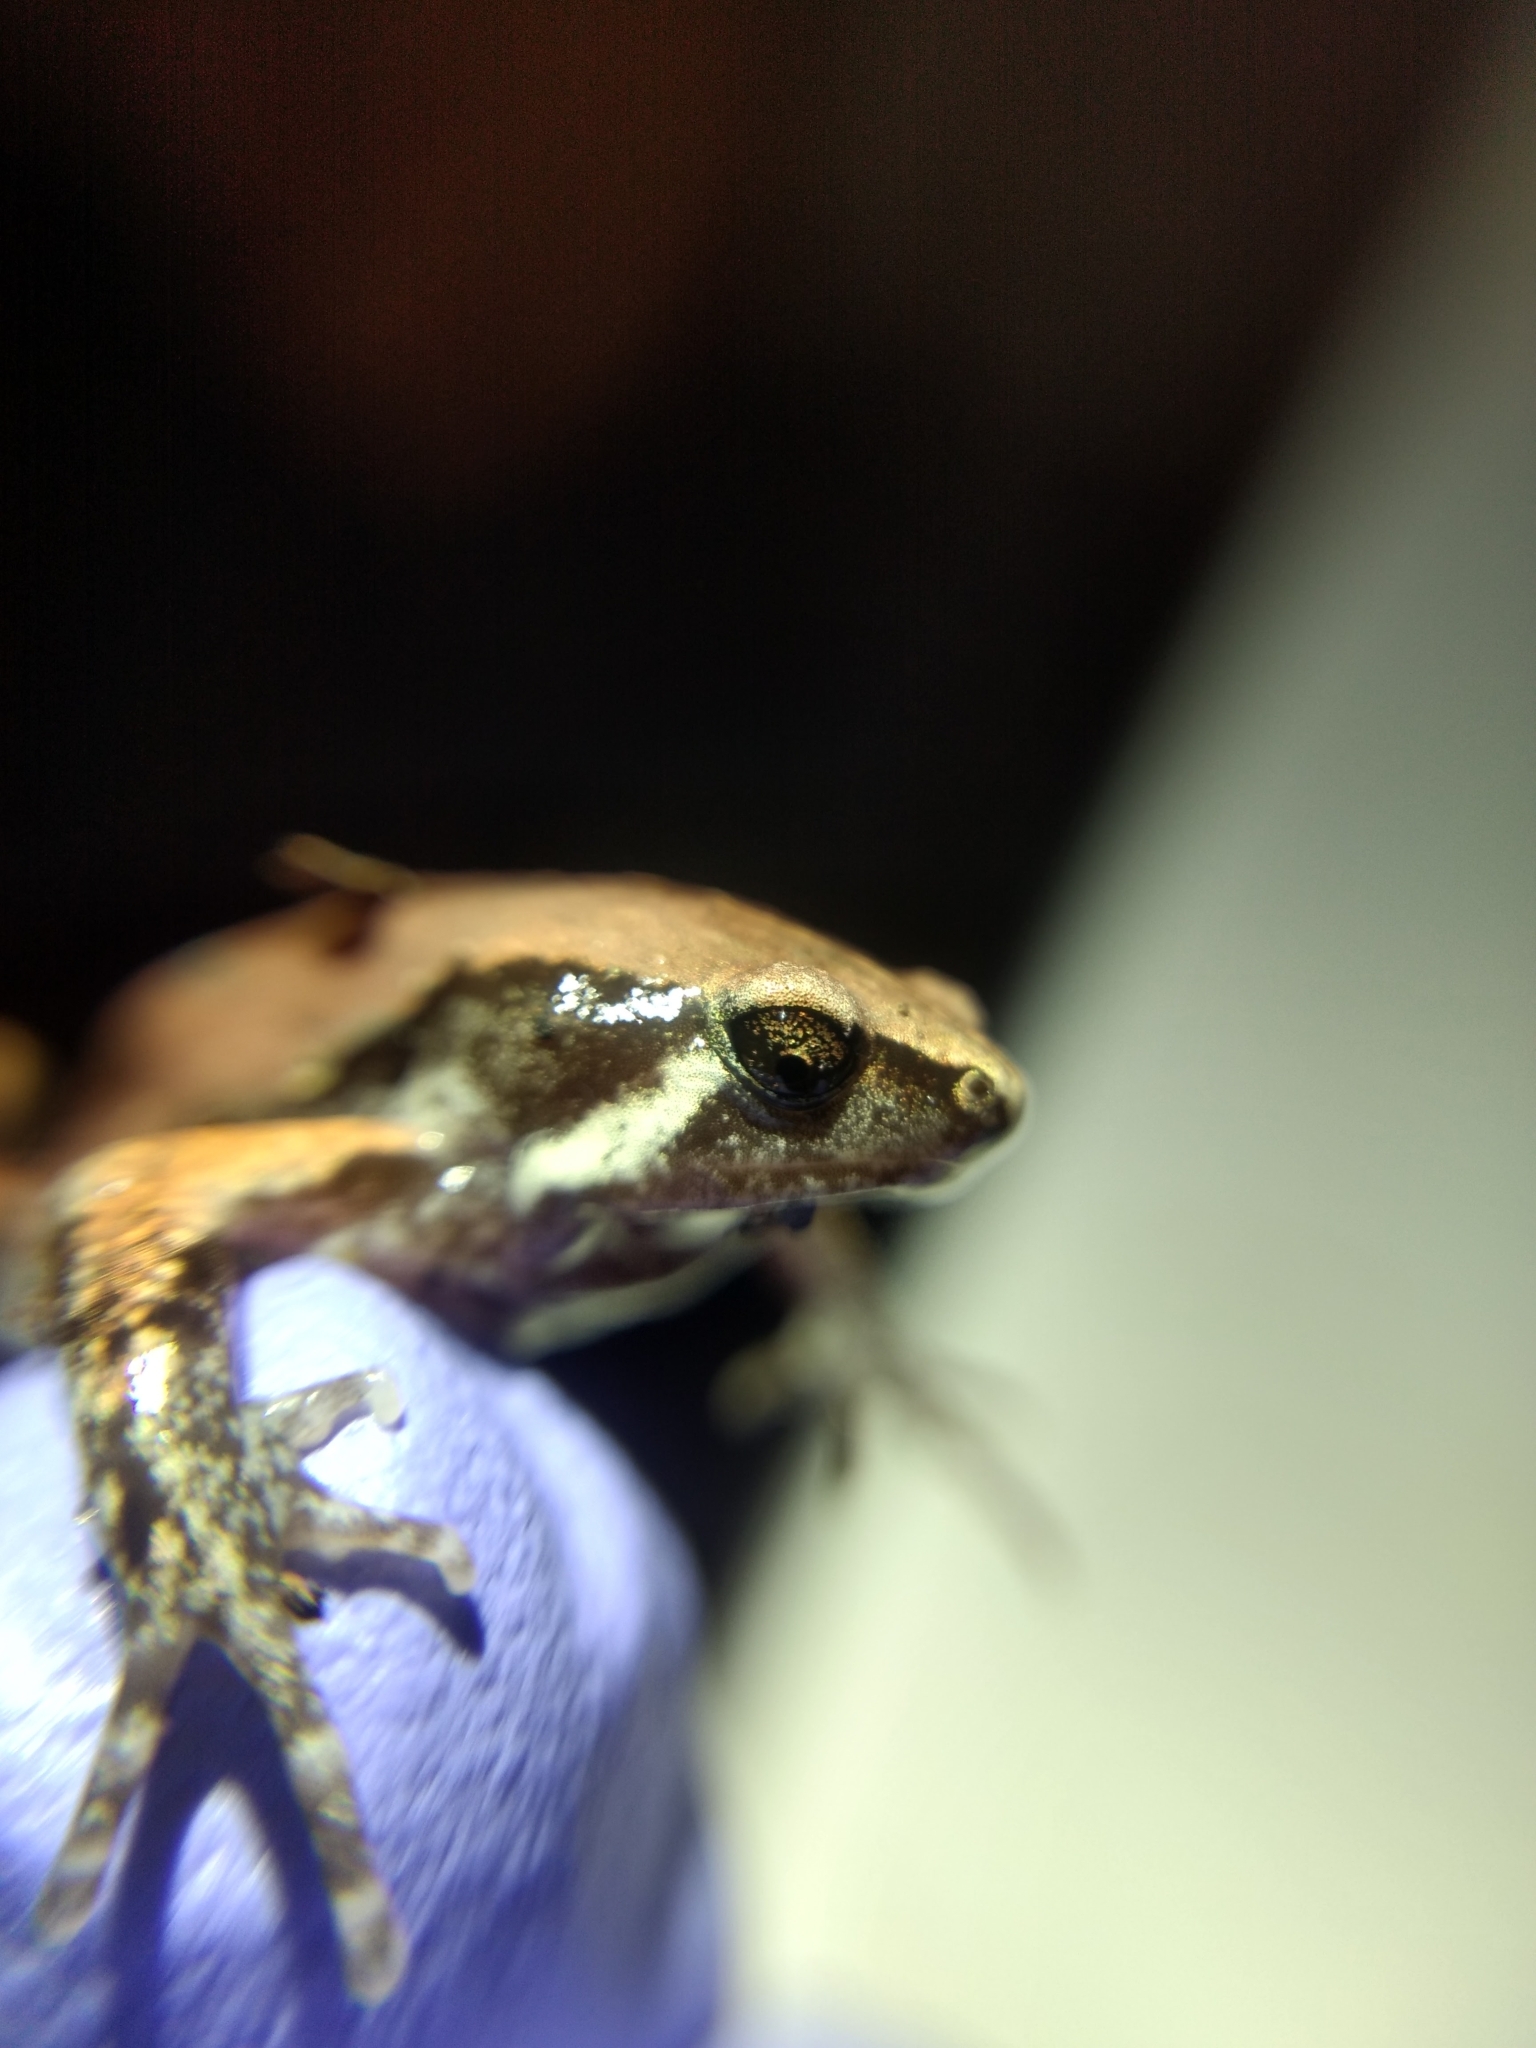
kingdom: Animalia
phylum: Chordata
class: Amphibia
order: Anura
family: Microhylidae
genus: Hypopachus
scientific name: Hypopachus variolosus
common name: Sheep frog
